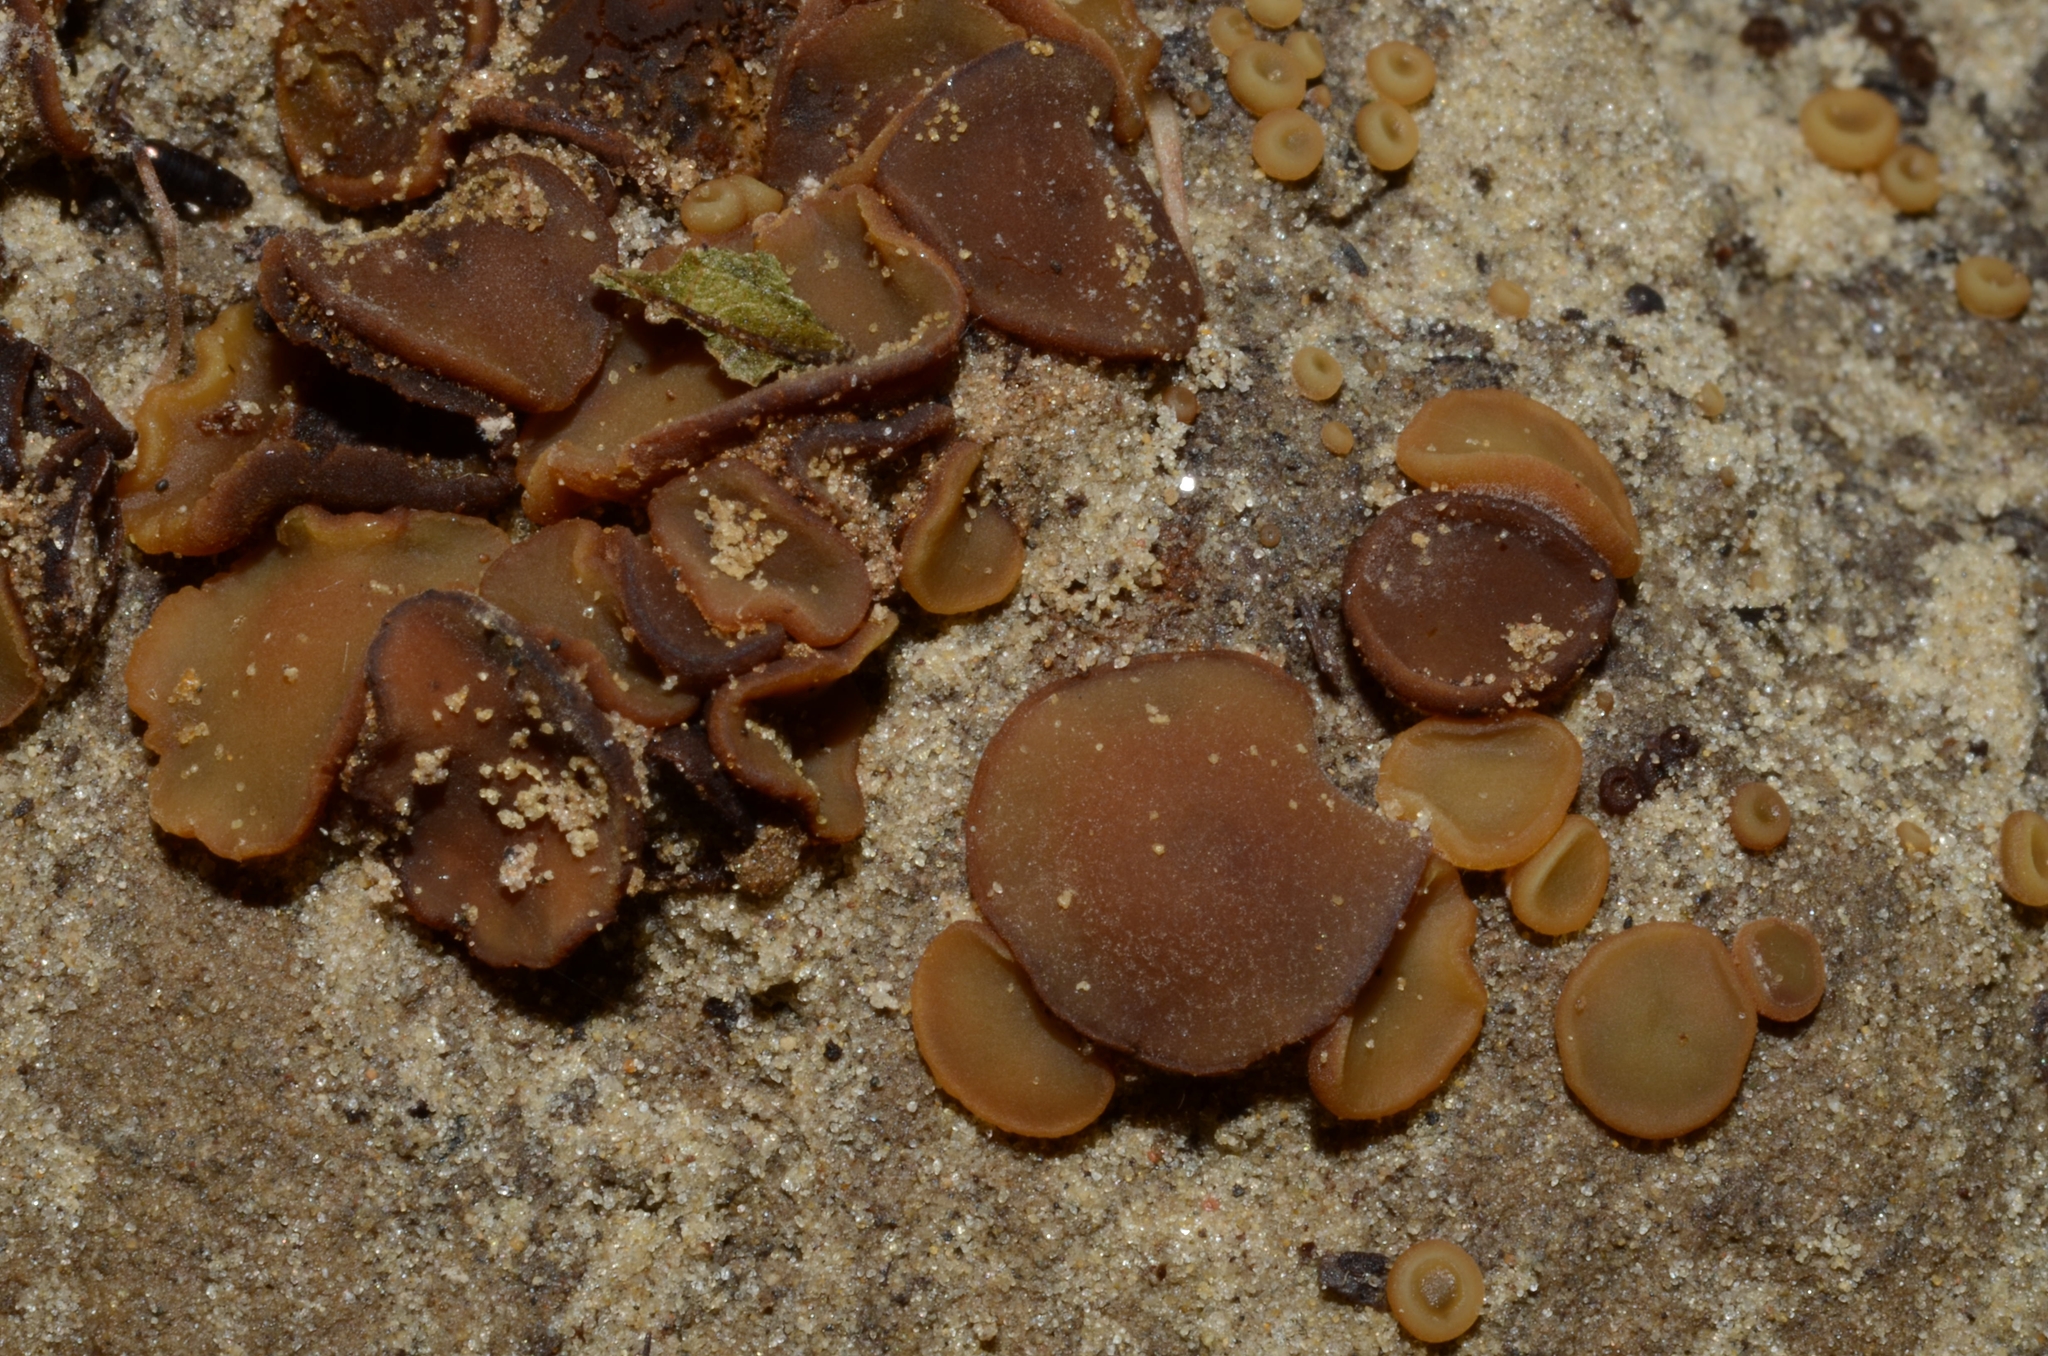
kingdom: Fungi
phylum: Ascomycota
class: Pezizomycetes
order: Pezizales
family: Pyronemataceae
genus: Aleurina
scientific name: Aleurina tenuiverrucosa
